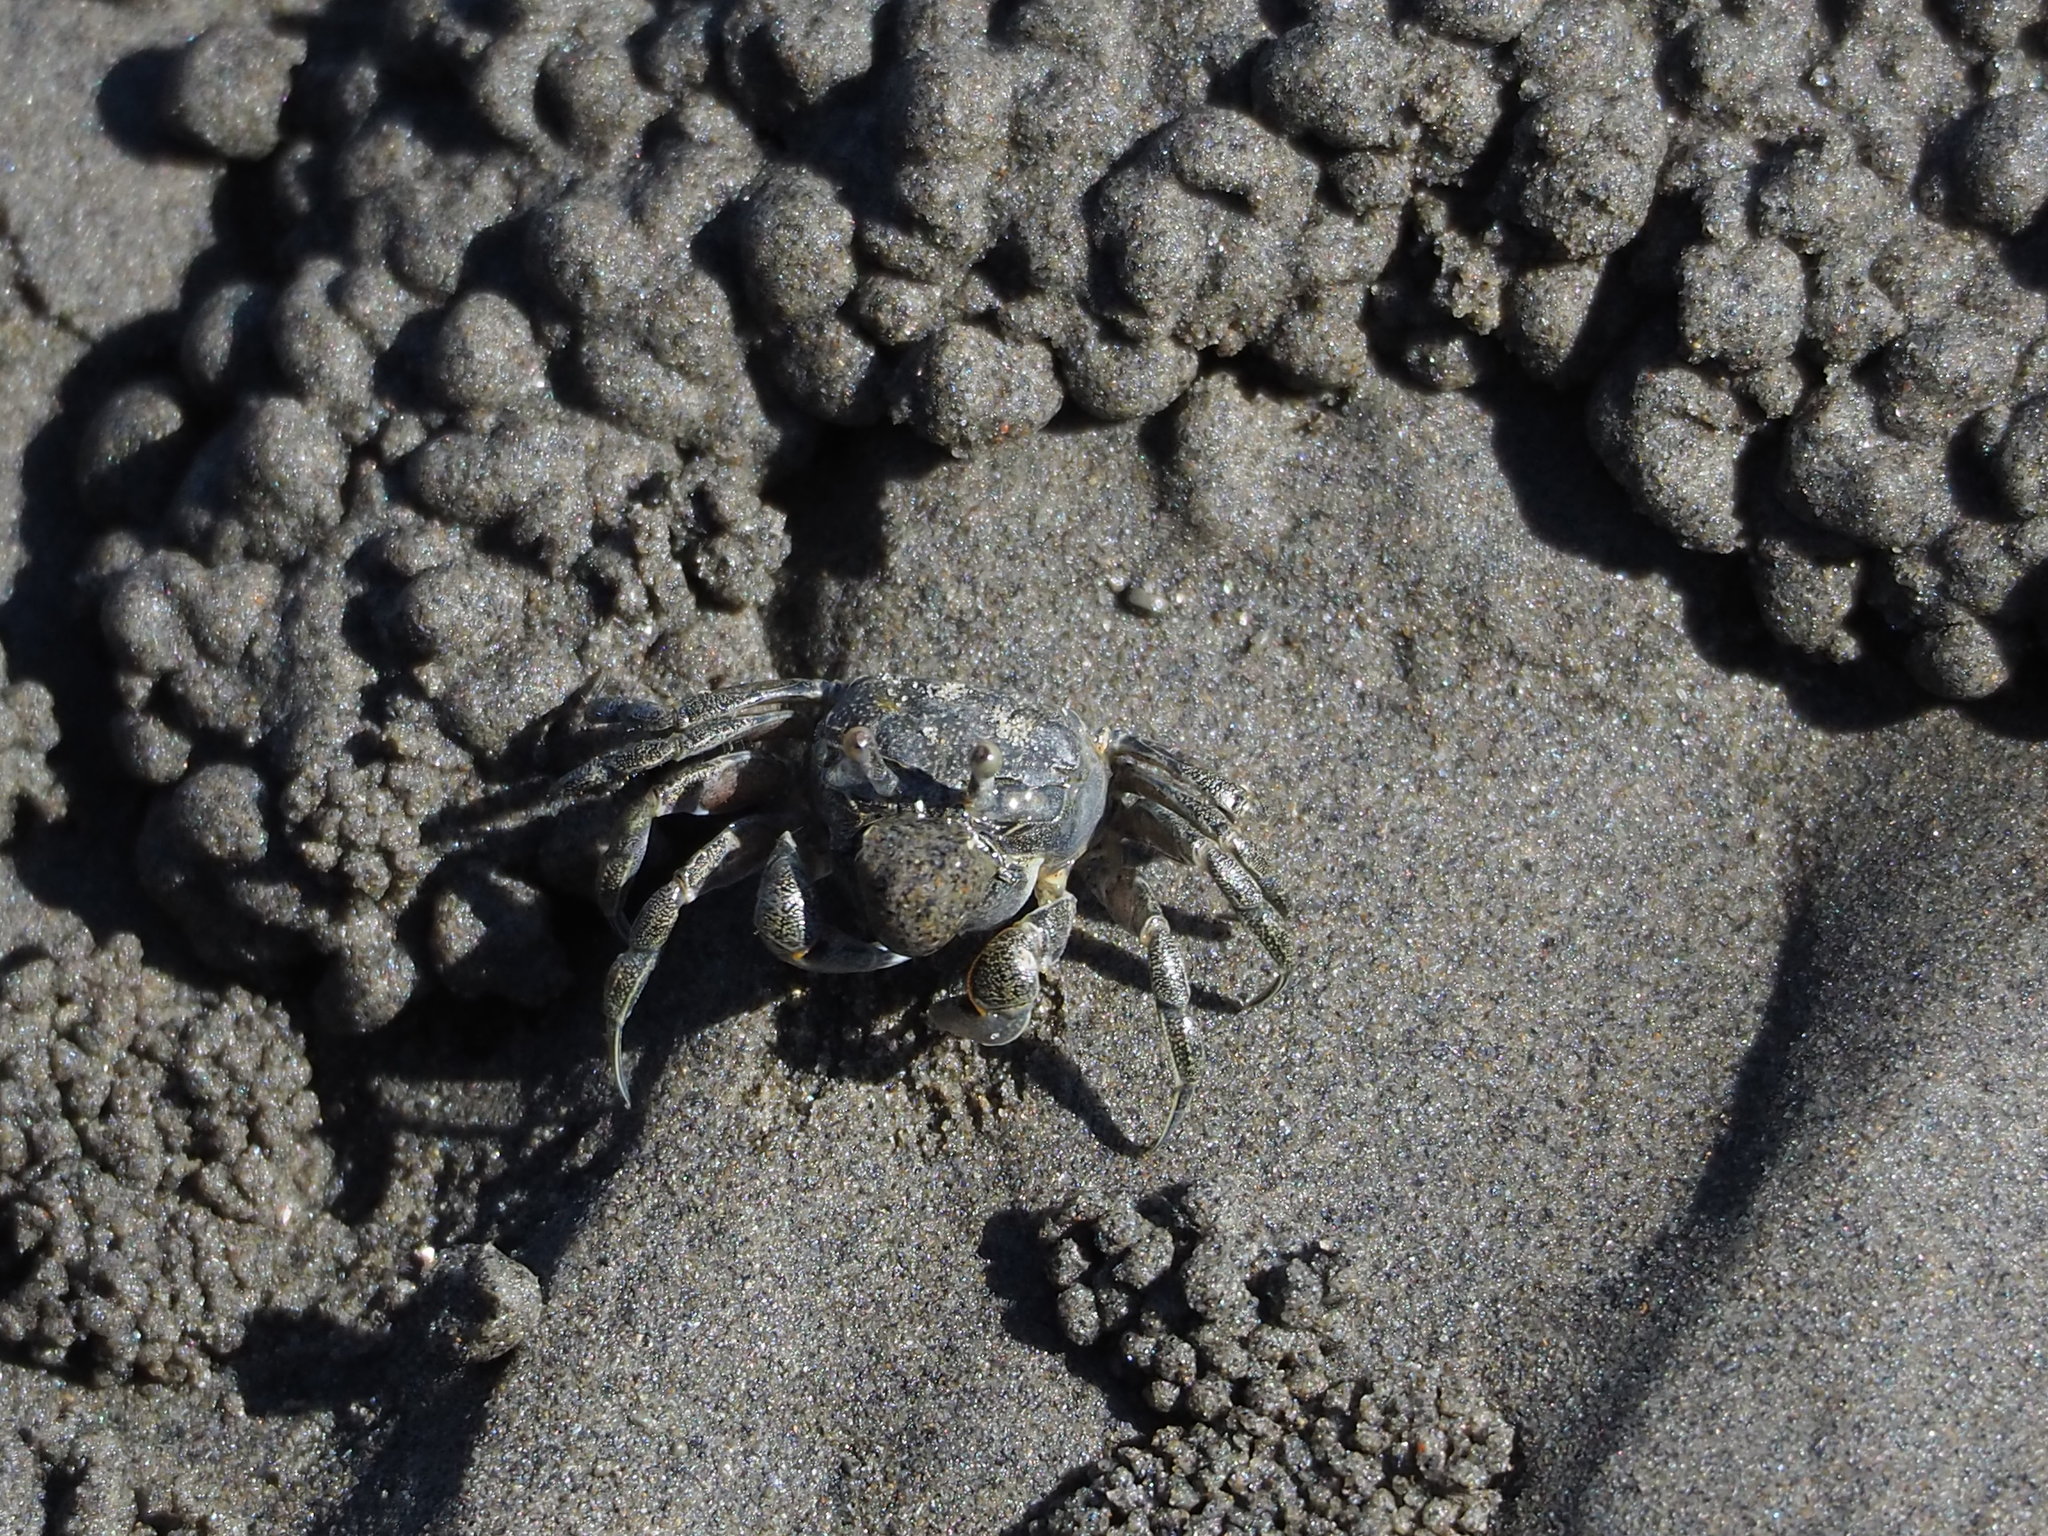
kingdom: Animalia
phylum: Arthropoda
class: Malacostraca
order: Decapoda
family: Dotillidae
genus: Scopimera
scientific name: Scopimera bitympana
